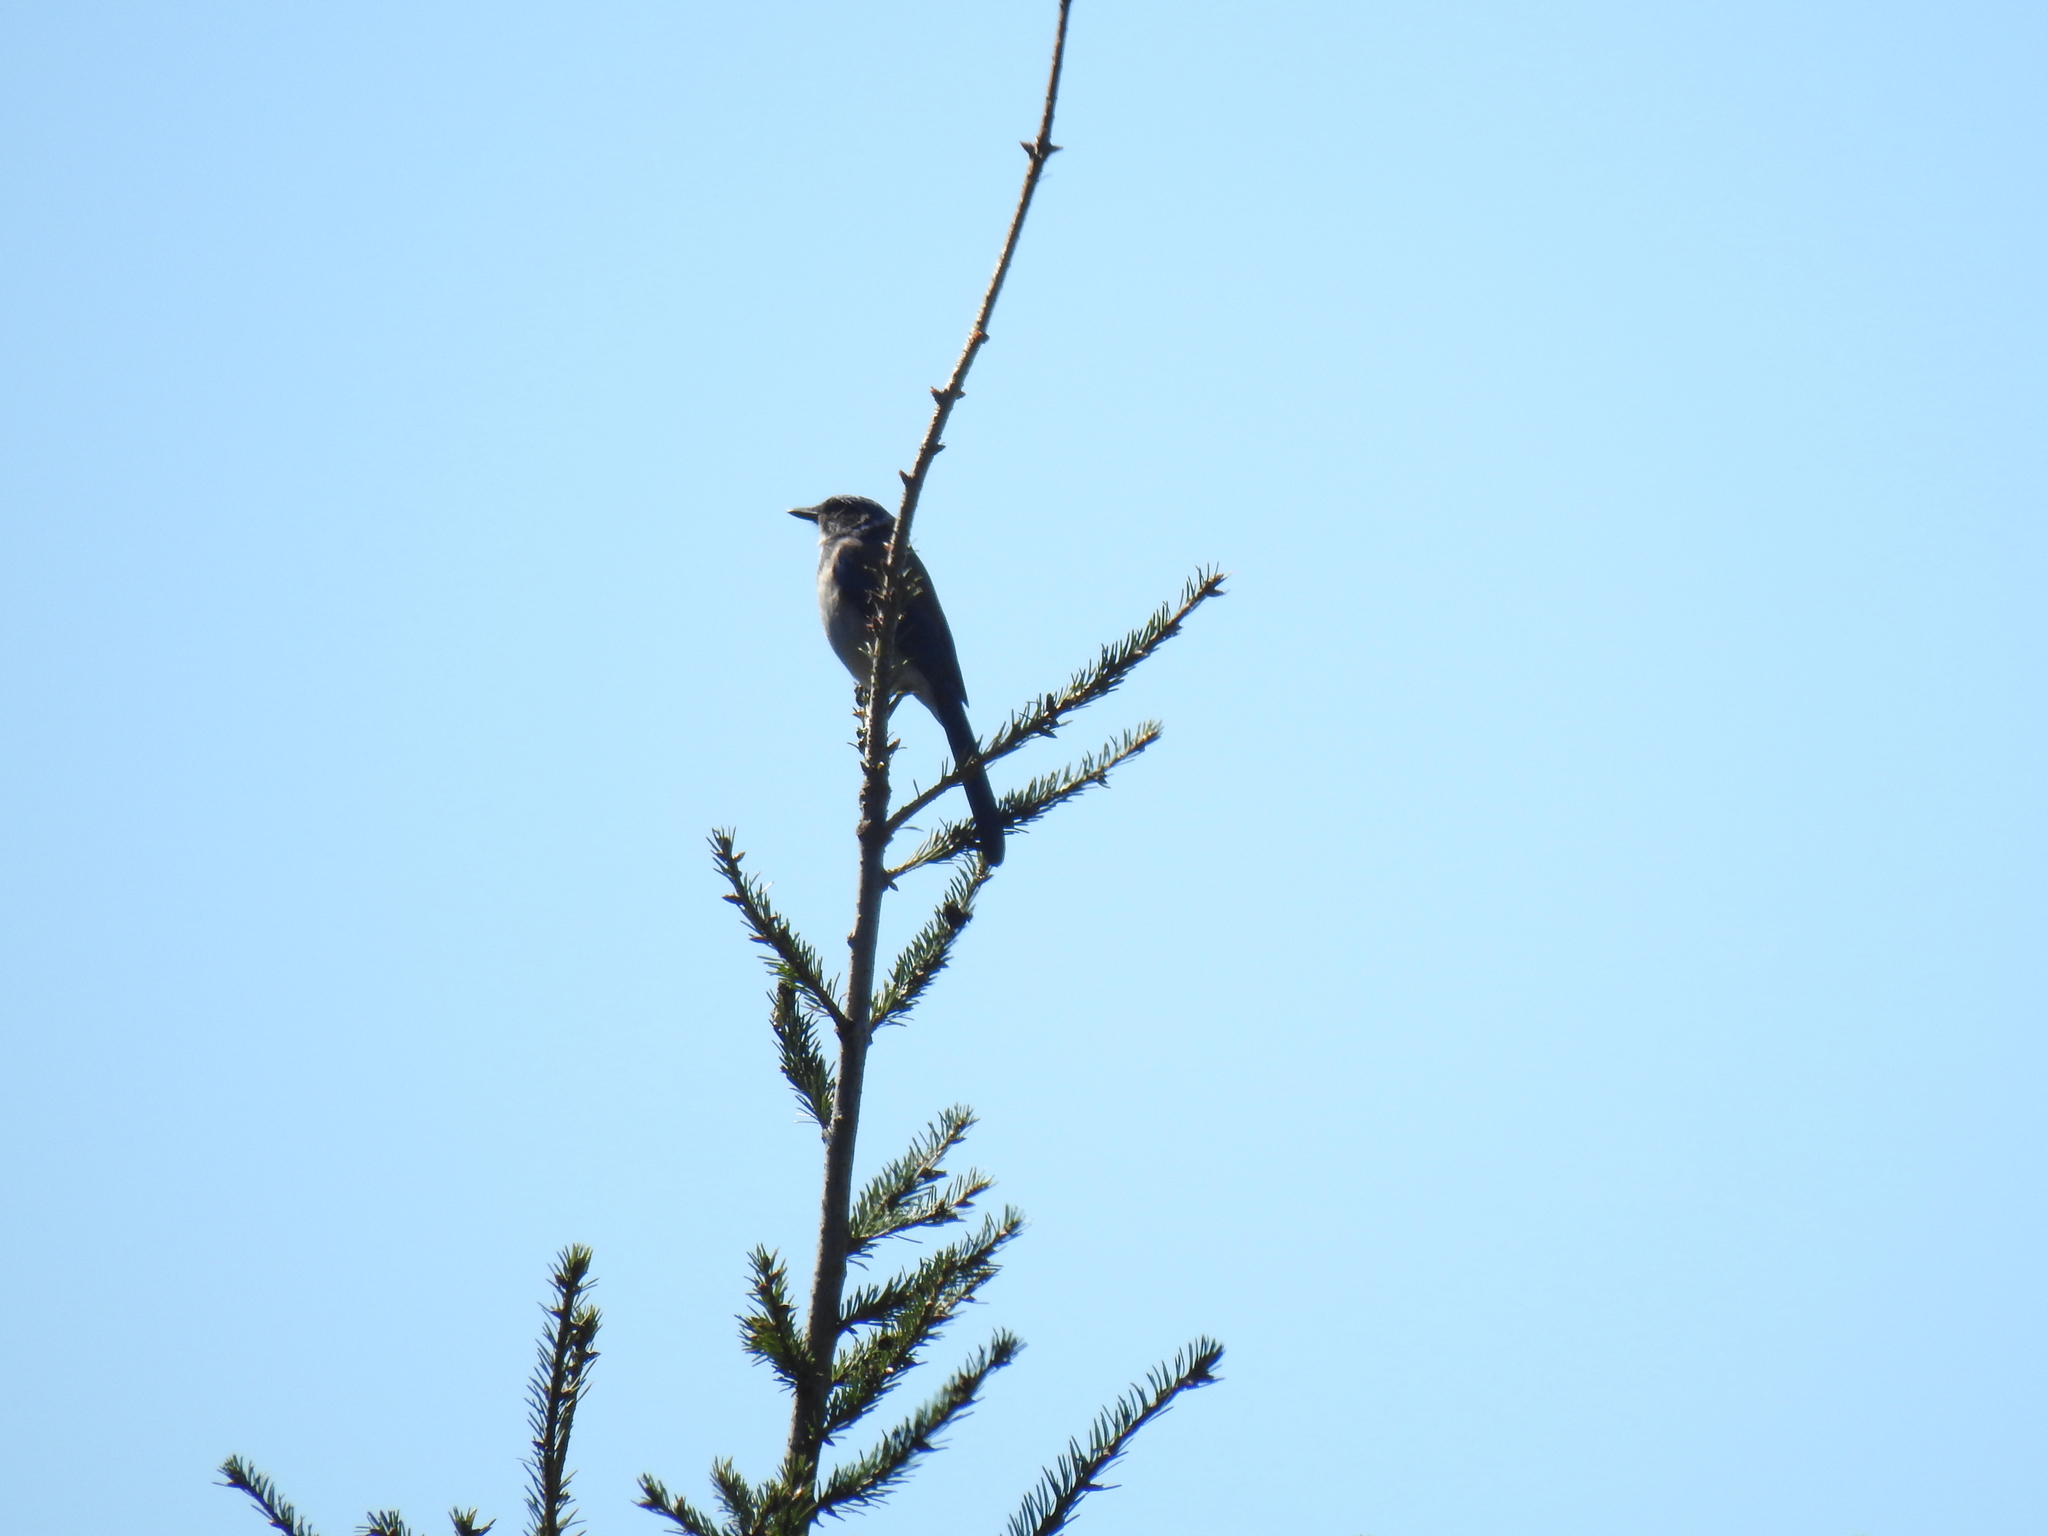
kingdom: Animalia
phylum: Chordata
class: Aves
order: Passeriformes
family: Corvidae
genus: Aphelocoma
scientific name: Aphelocoma californica
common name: California scrub-jay
